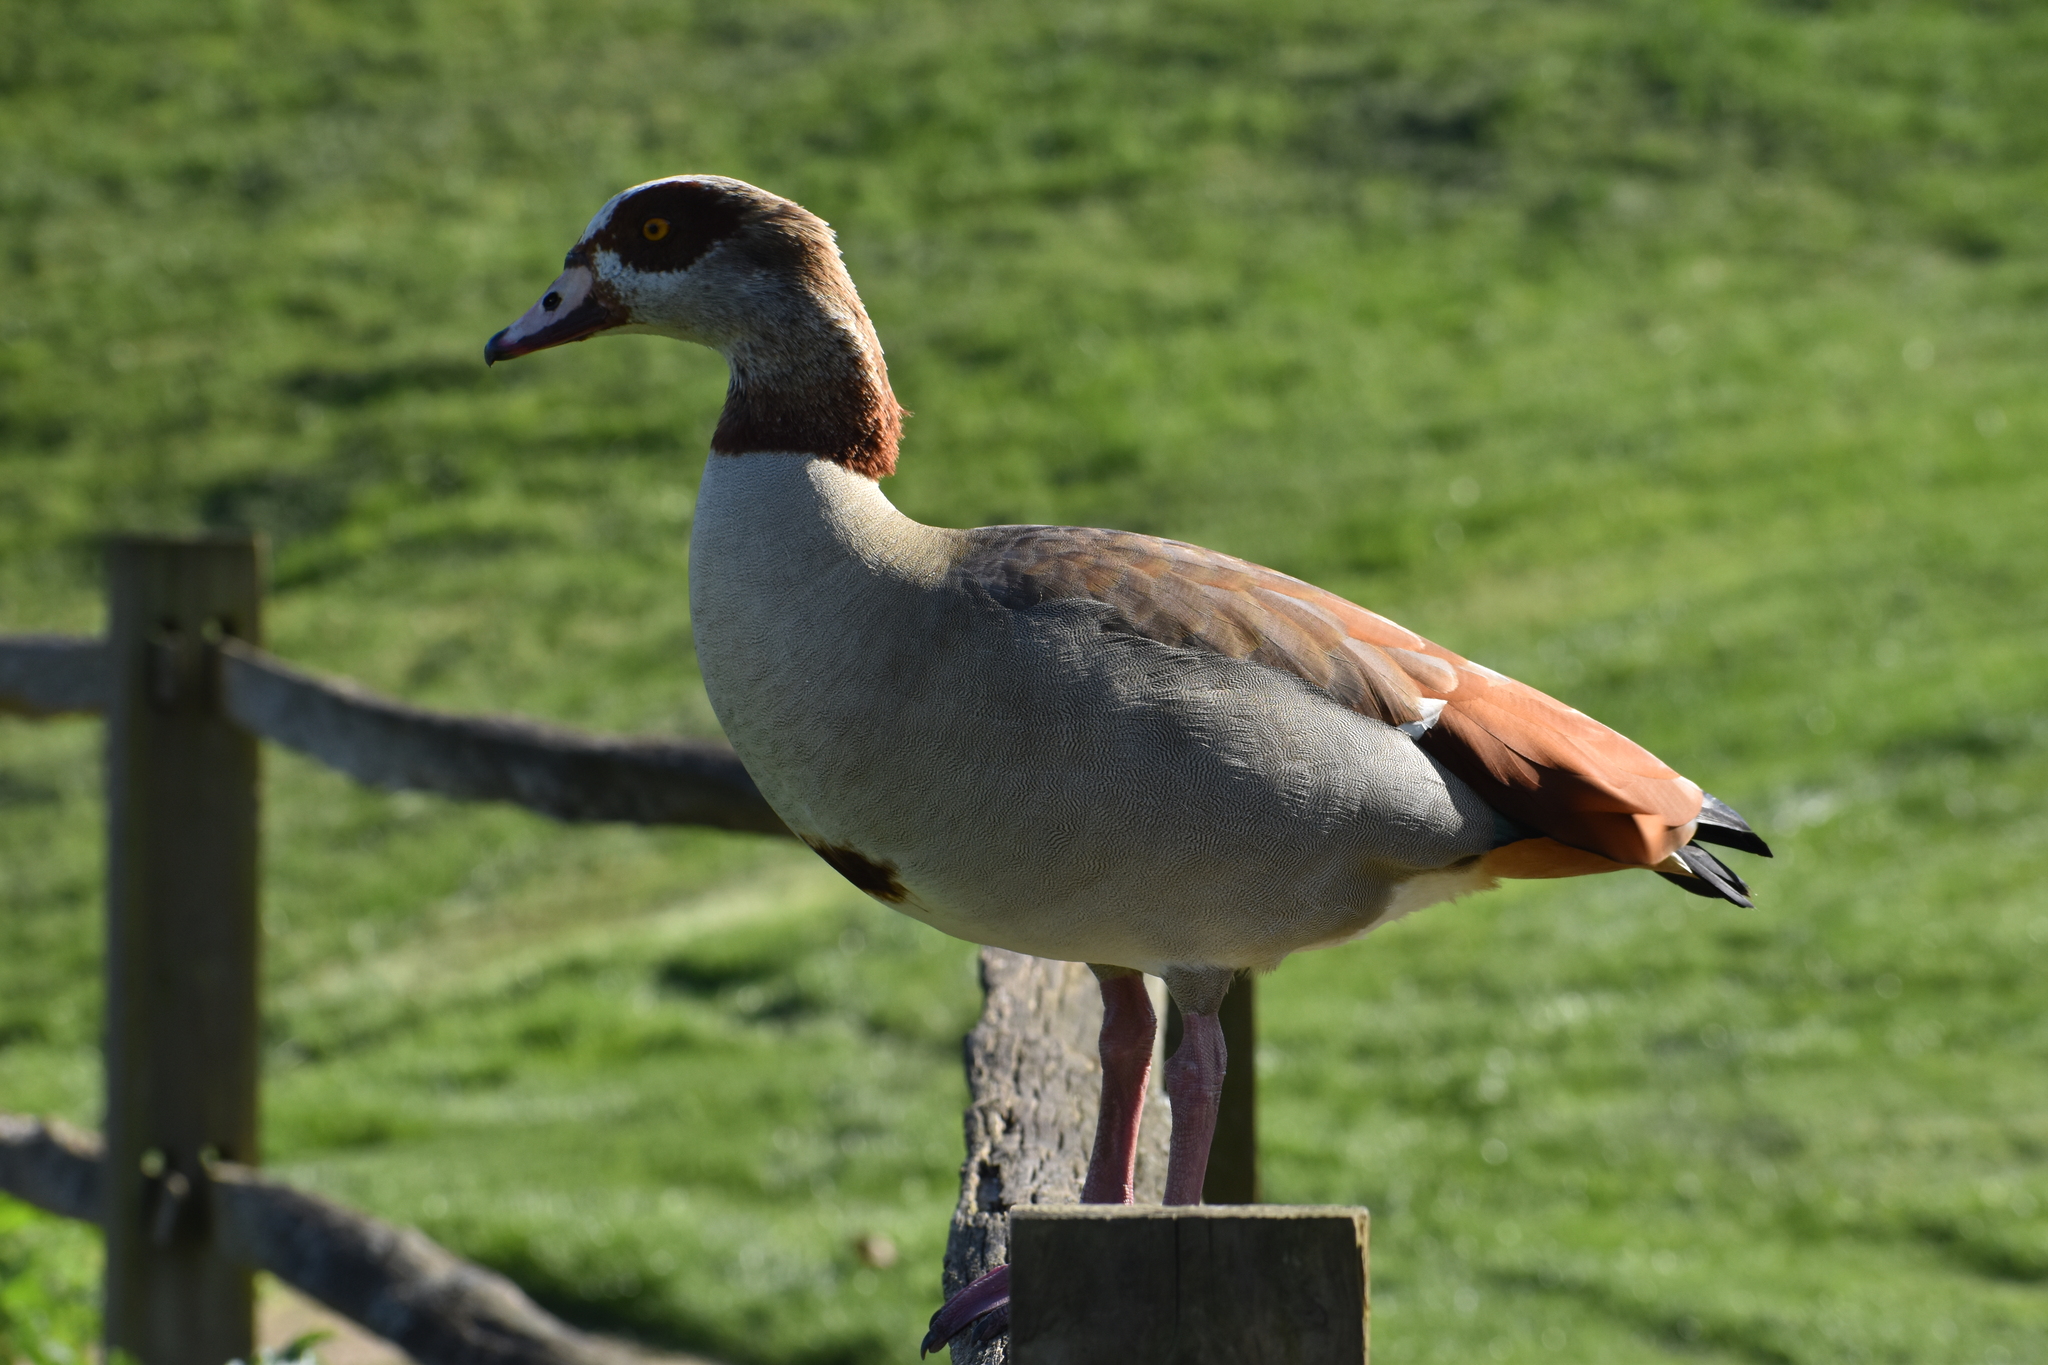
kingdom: Animalia
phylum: Chordata
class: Aves
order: Anseriformes
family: Anatidae
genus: Alopochen
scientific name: Alopochen aegyptiaca
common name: Egyptian goose
